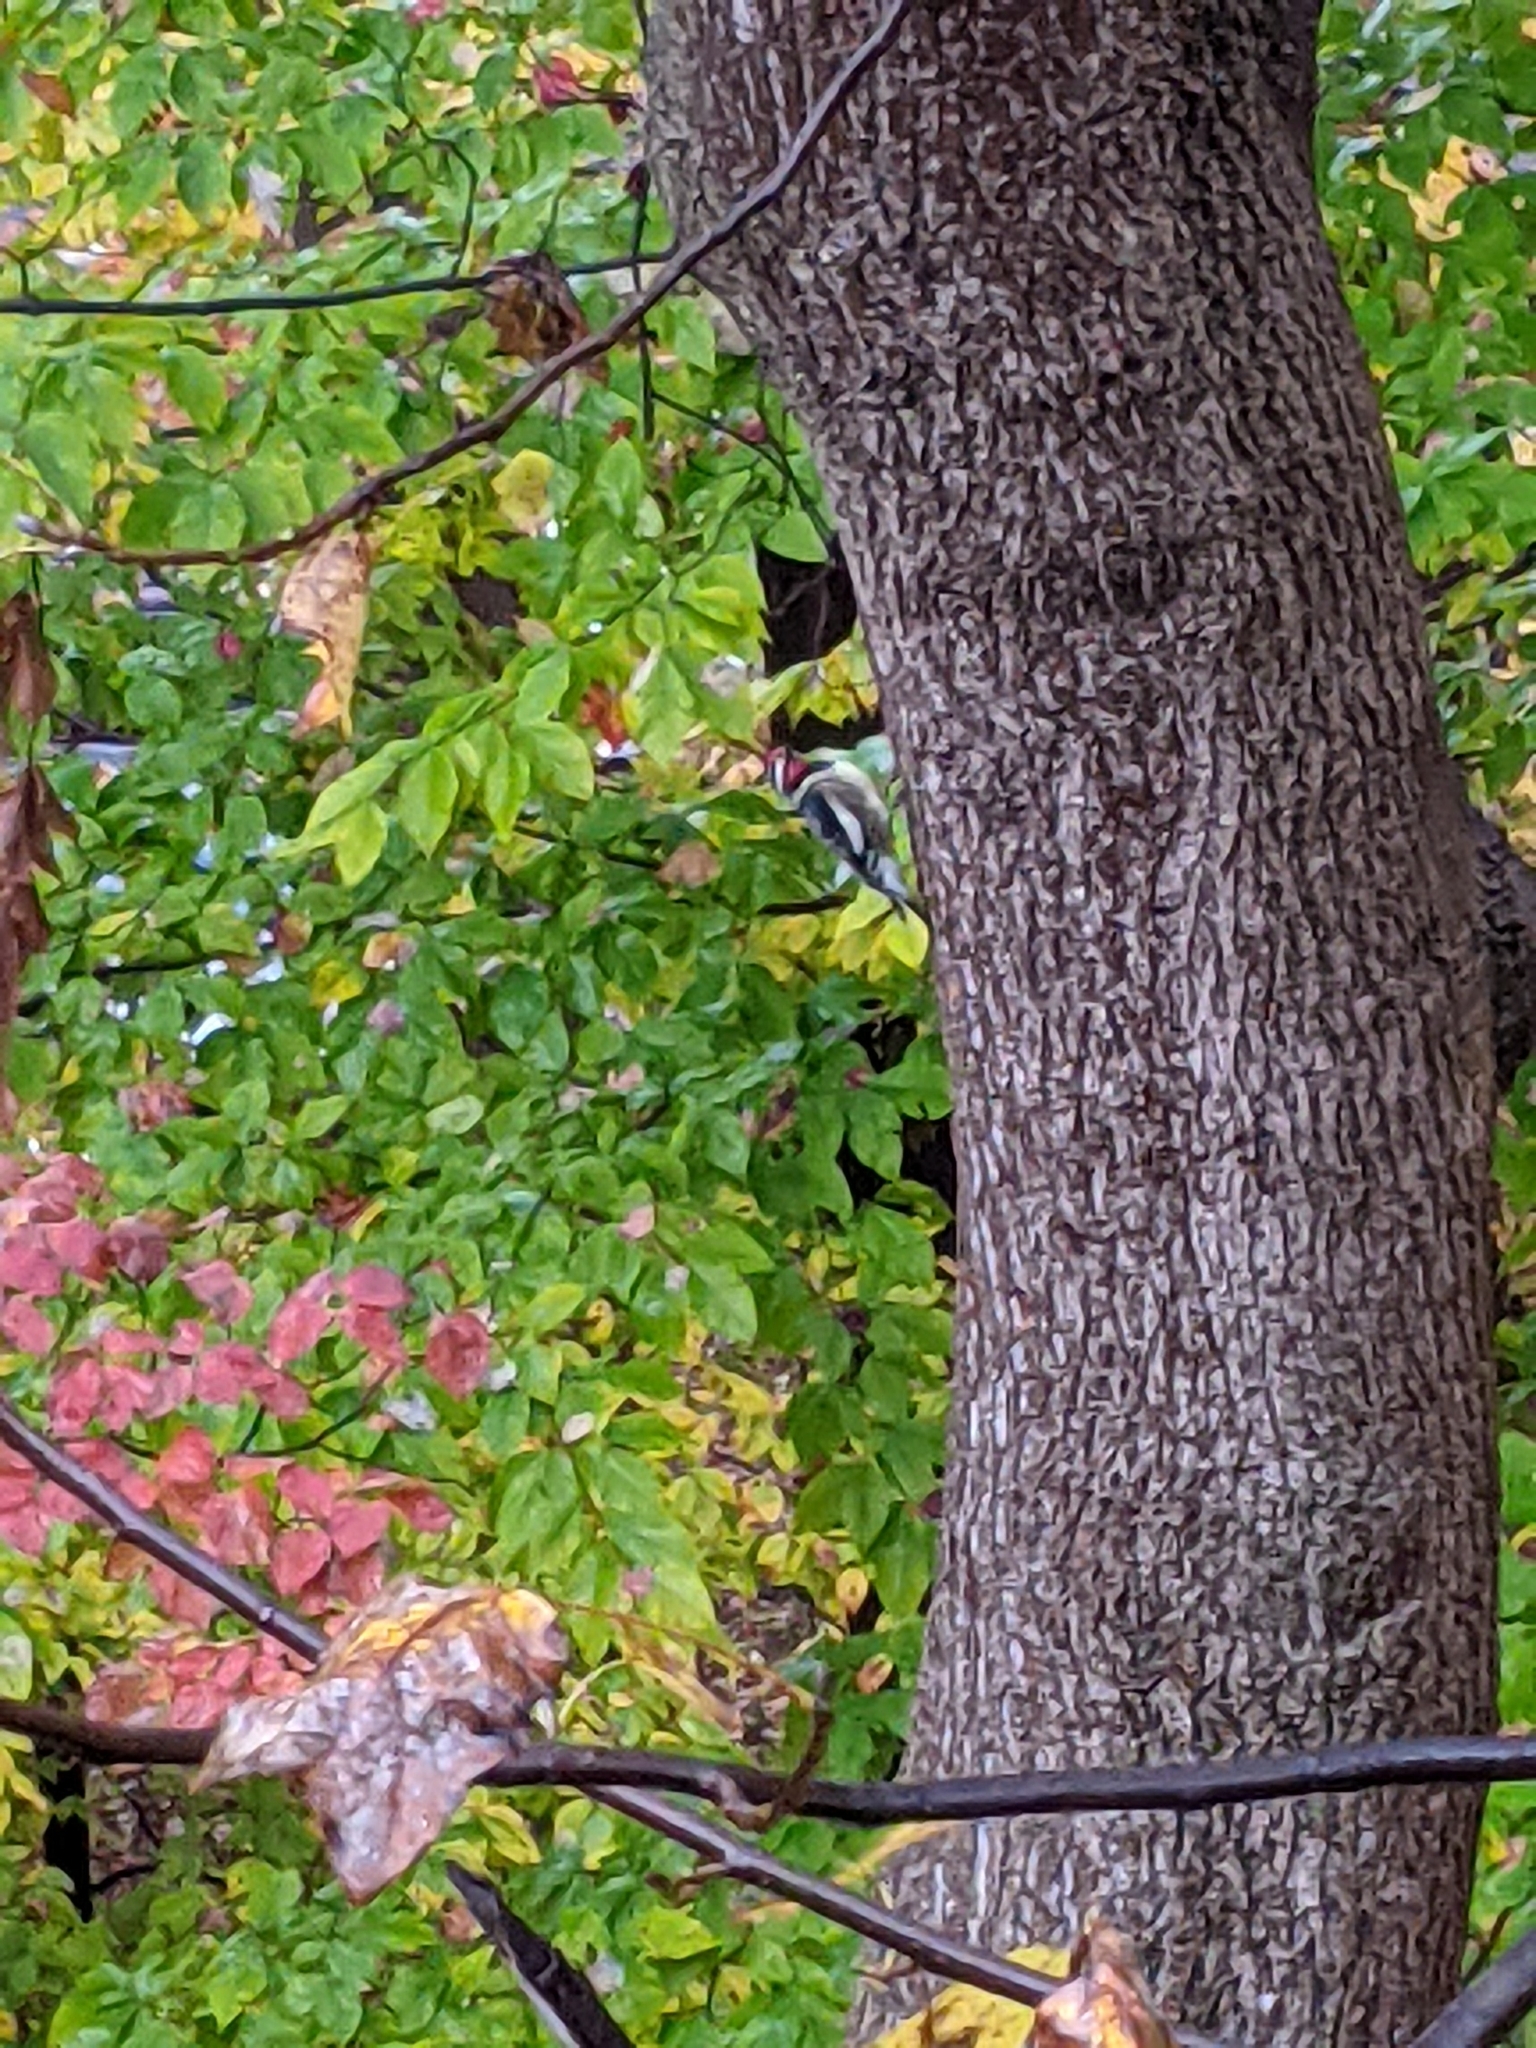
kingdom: Animalia
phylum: Chordata
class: Aves
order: Piciformes
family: Picidae
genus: Sphyrapicus
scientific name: Sphyrapicus varius
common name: Yellow-bellied sapsucker
